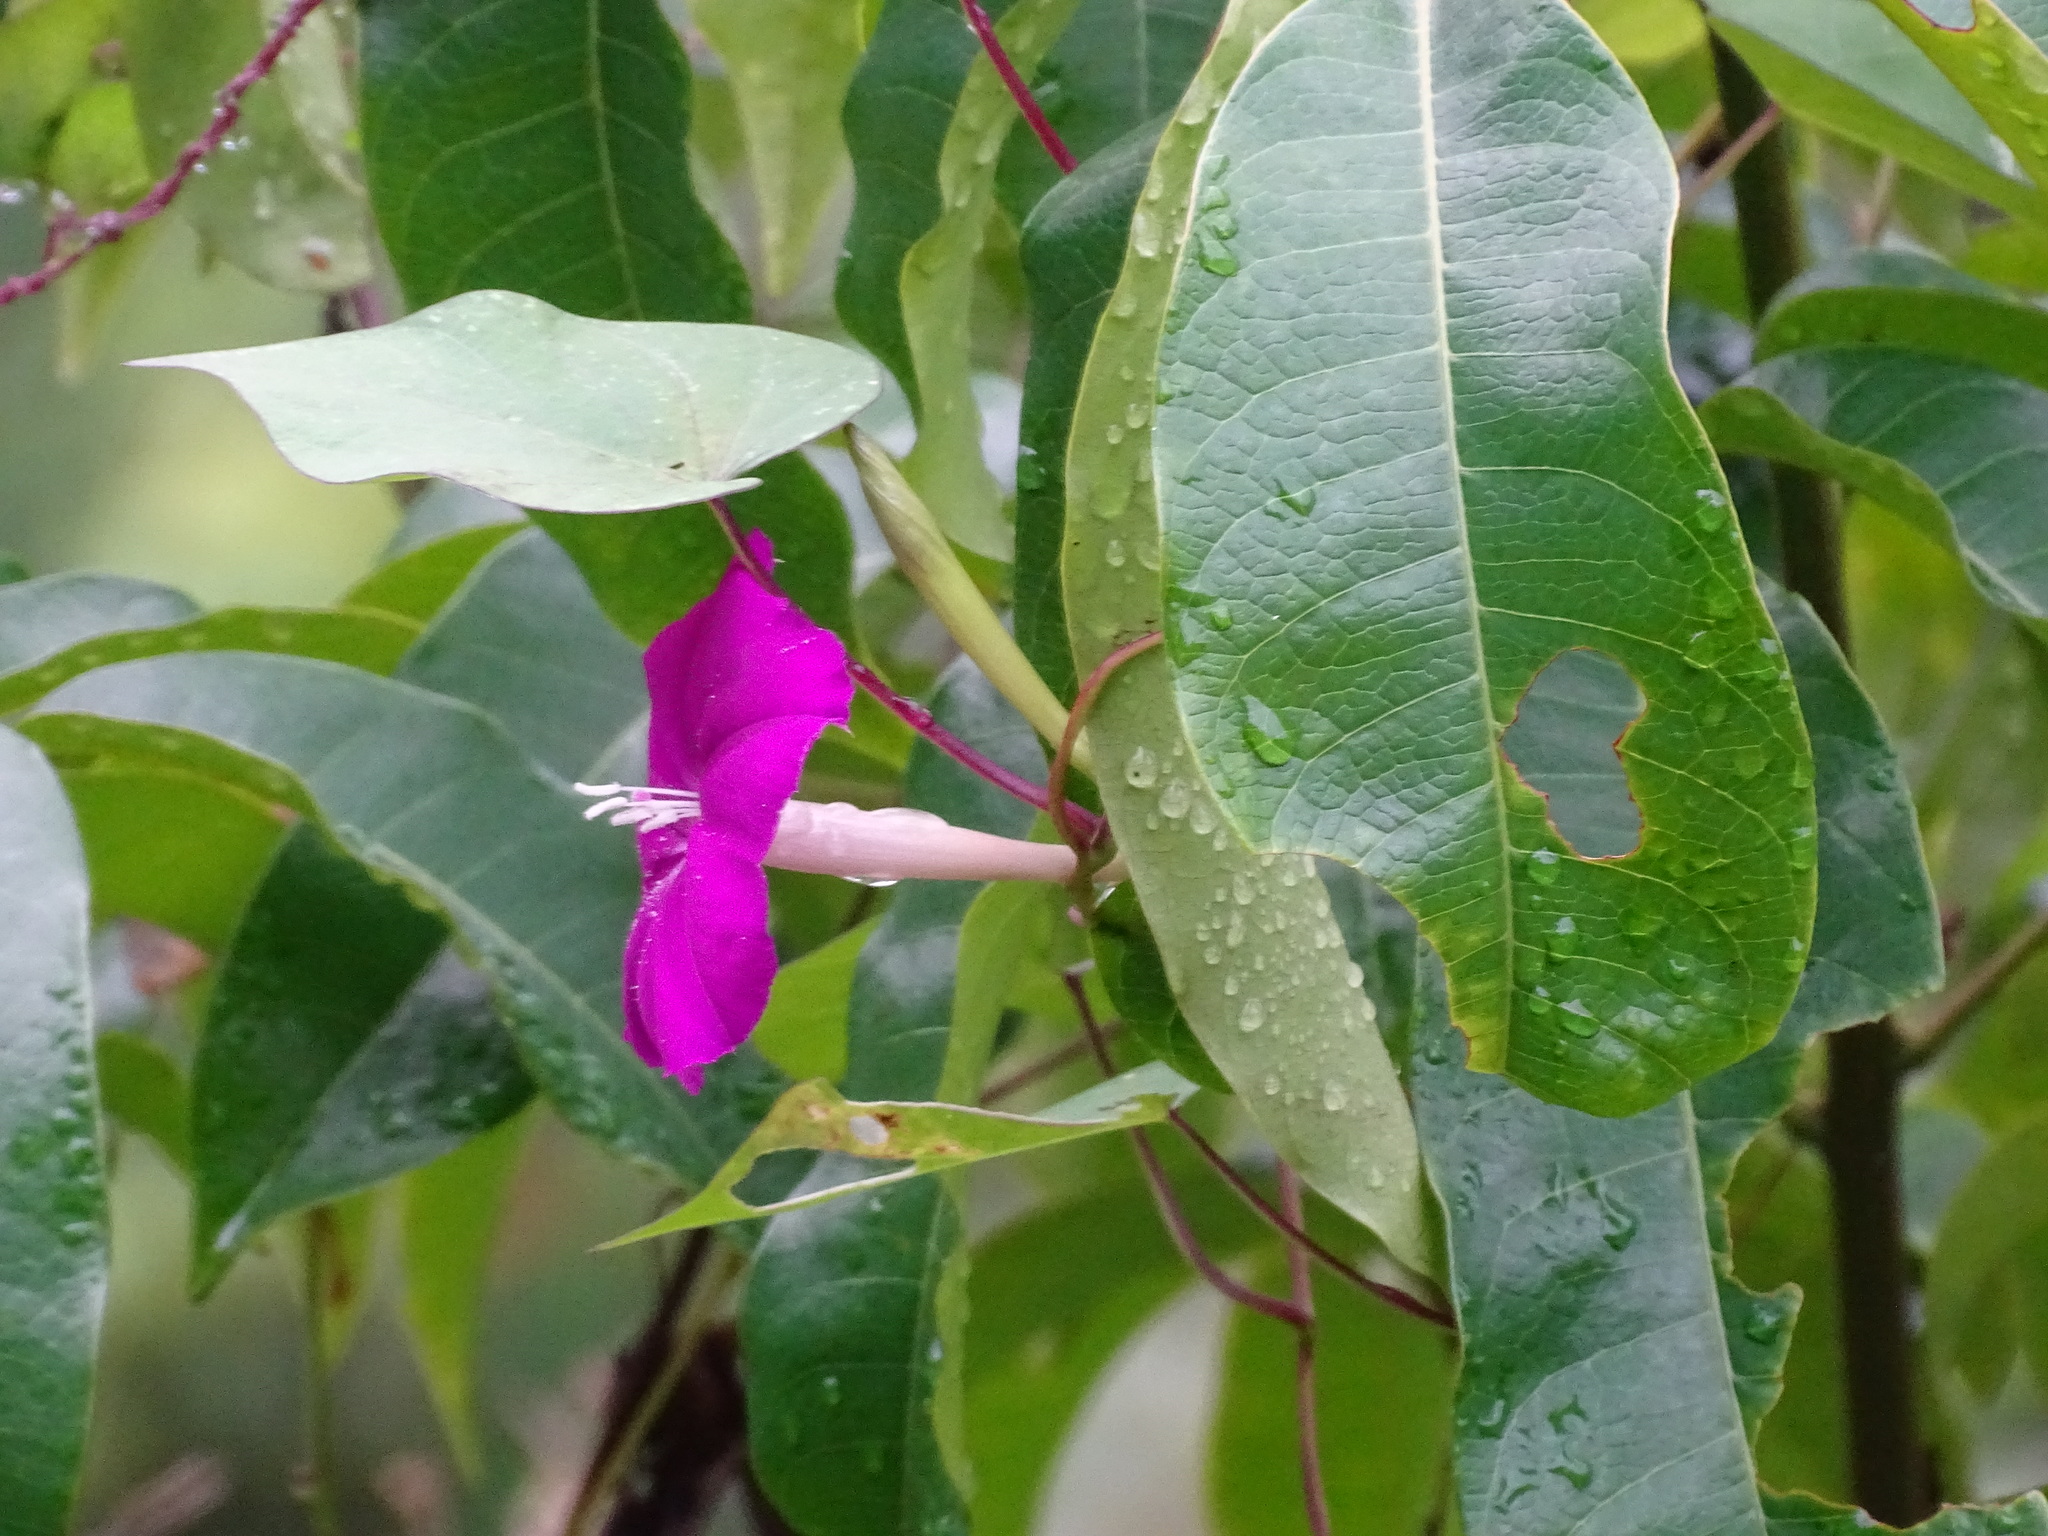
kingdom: Plantae
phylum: Tracheophyta
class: Magnoliopsida
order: Solanales
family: Convolvulaceae
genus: Ipomoea
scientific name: Ipomoea dumosa
